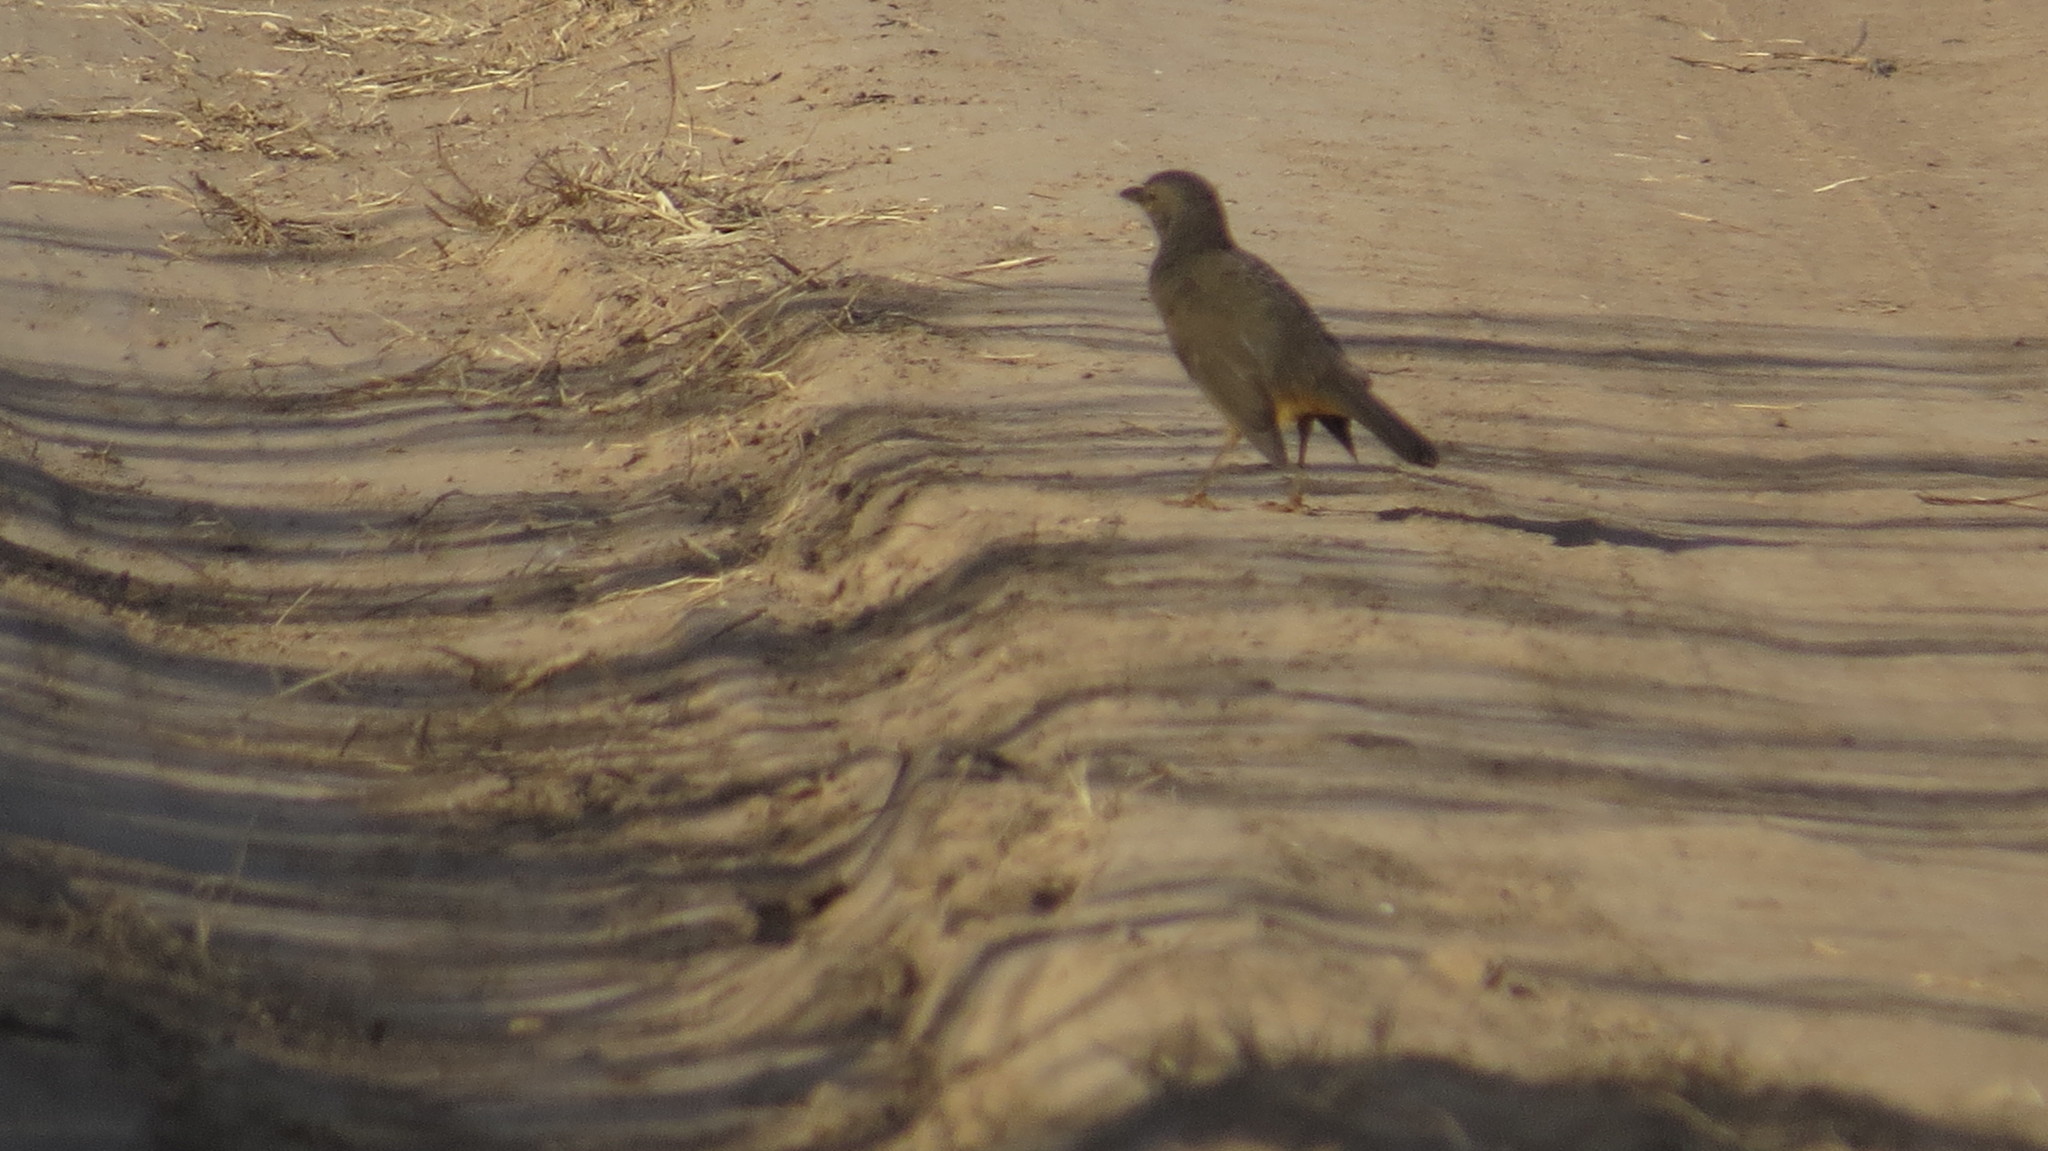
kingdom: Animalia
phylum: Chordata
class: Aves
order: Passeriformes
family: Turdidae
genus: Turdus
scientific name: Turdus rufiventris
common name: Rufous-bellied thrush
